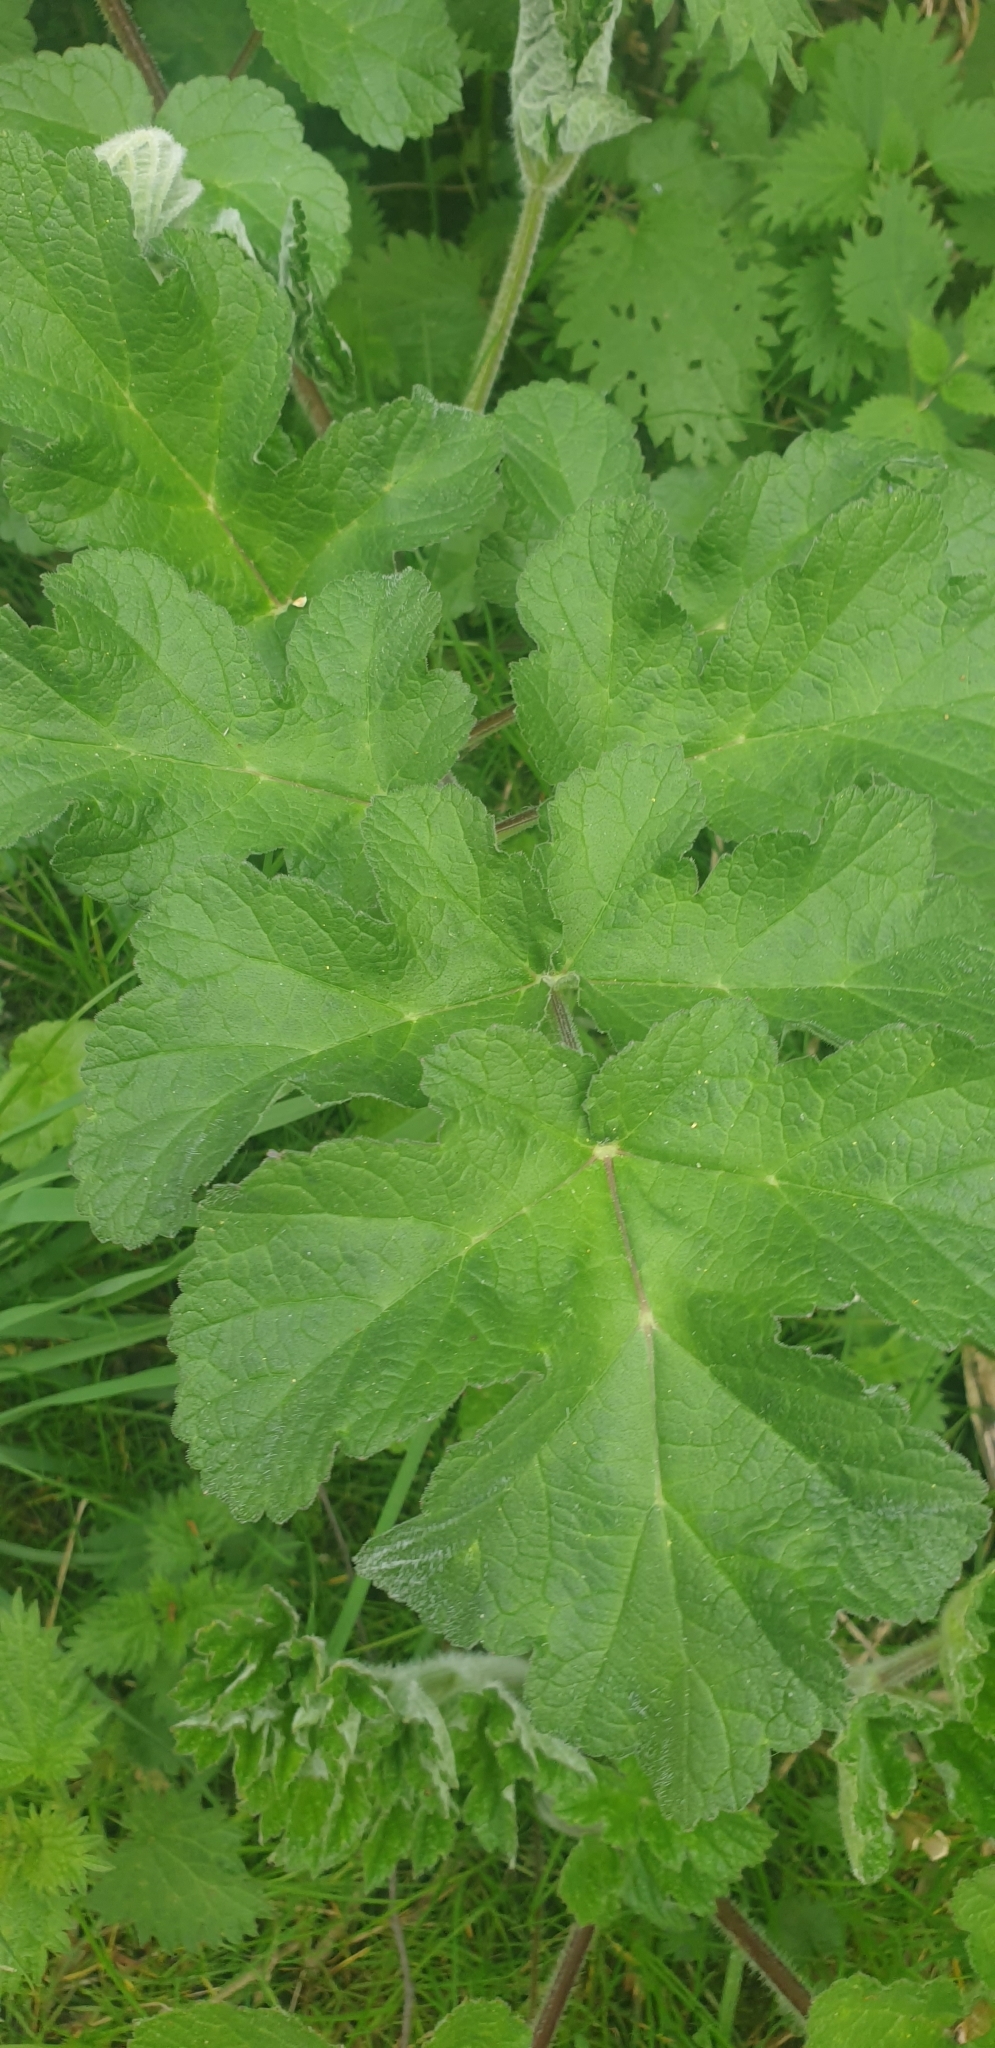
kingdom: Plantae
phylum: Tracheophyta
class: Magnoliopsida
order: Apiales
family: Apiaceae
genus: Heracleum
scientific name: Heracleum sphondylium
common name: Hogweed
